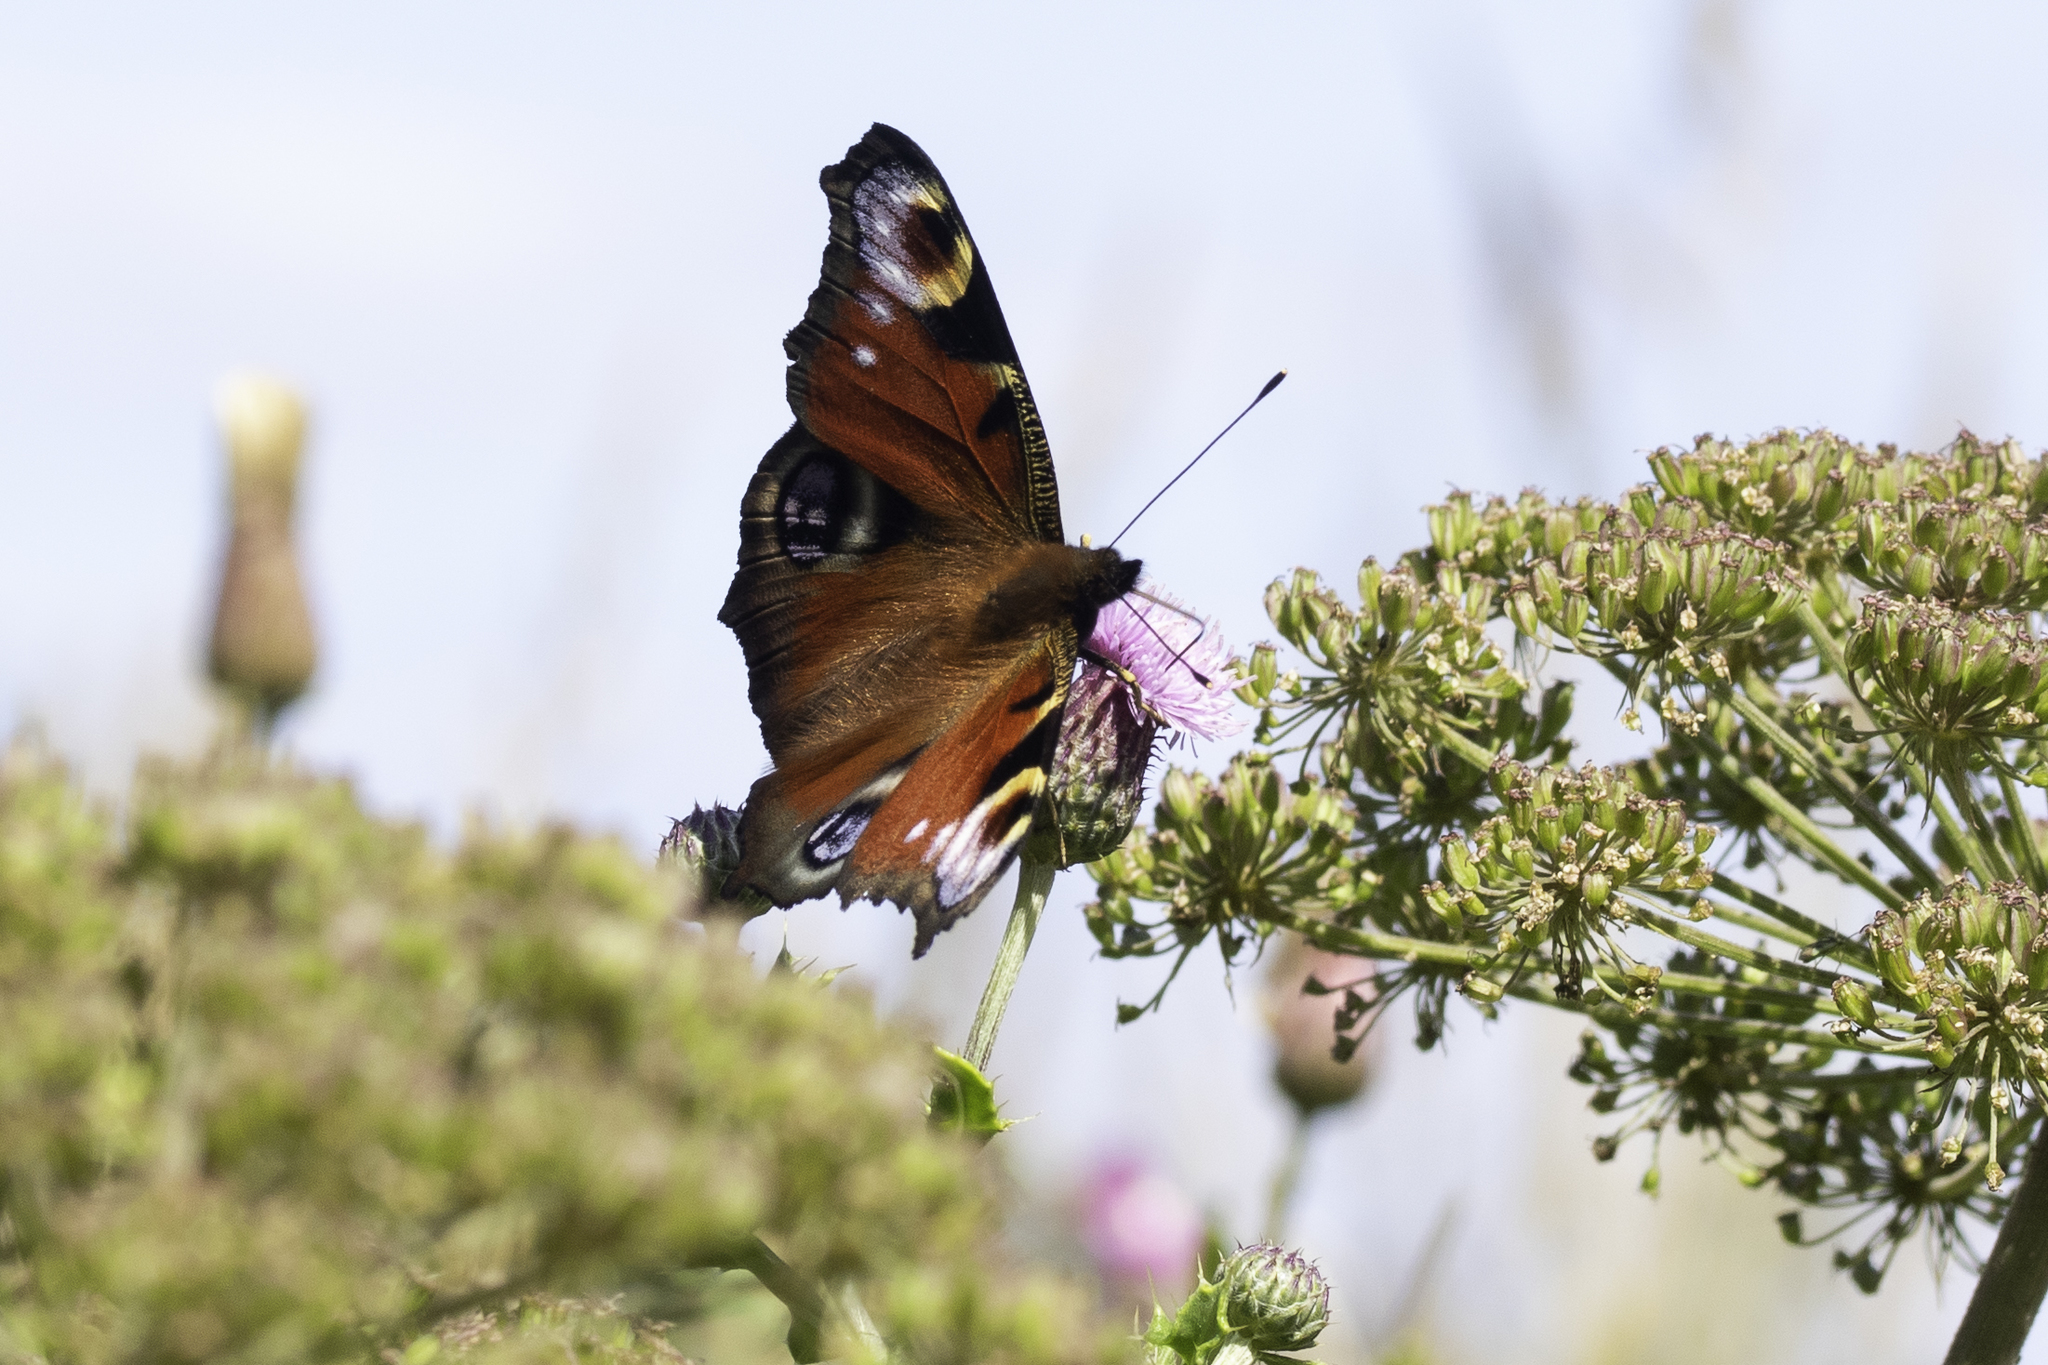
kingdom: Animalia
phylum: Arthropoda
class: Insecta
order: Lepidoptera
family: Nymphalidae
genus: Aglais
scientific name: Aglais io
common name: Peacock
